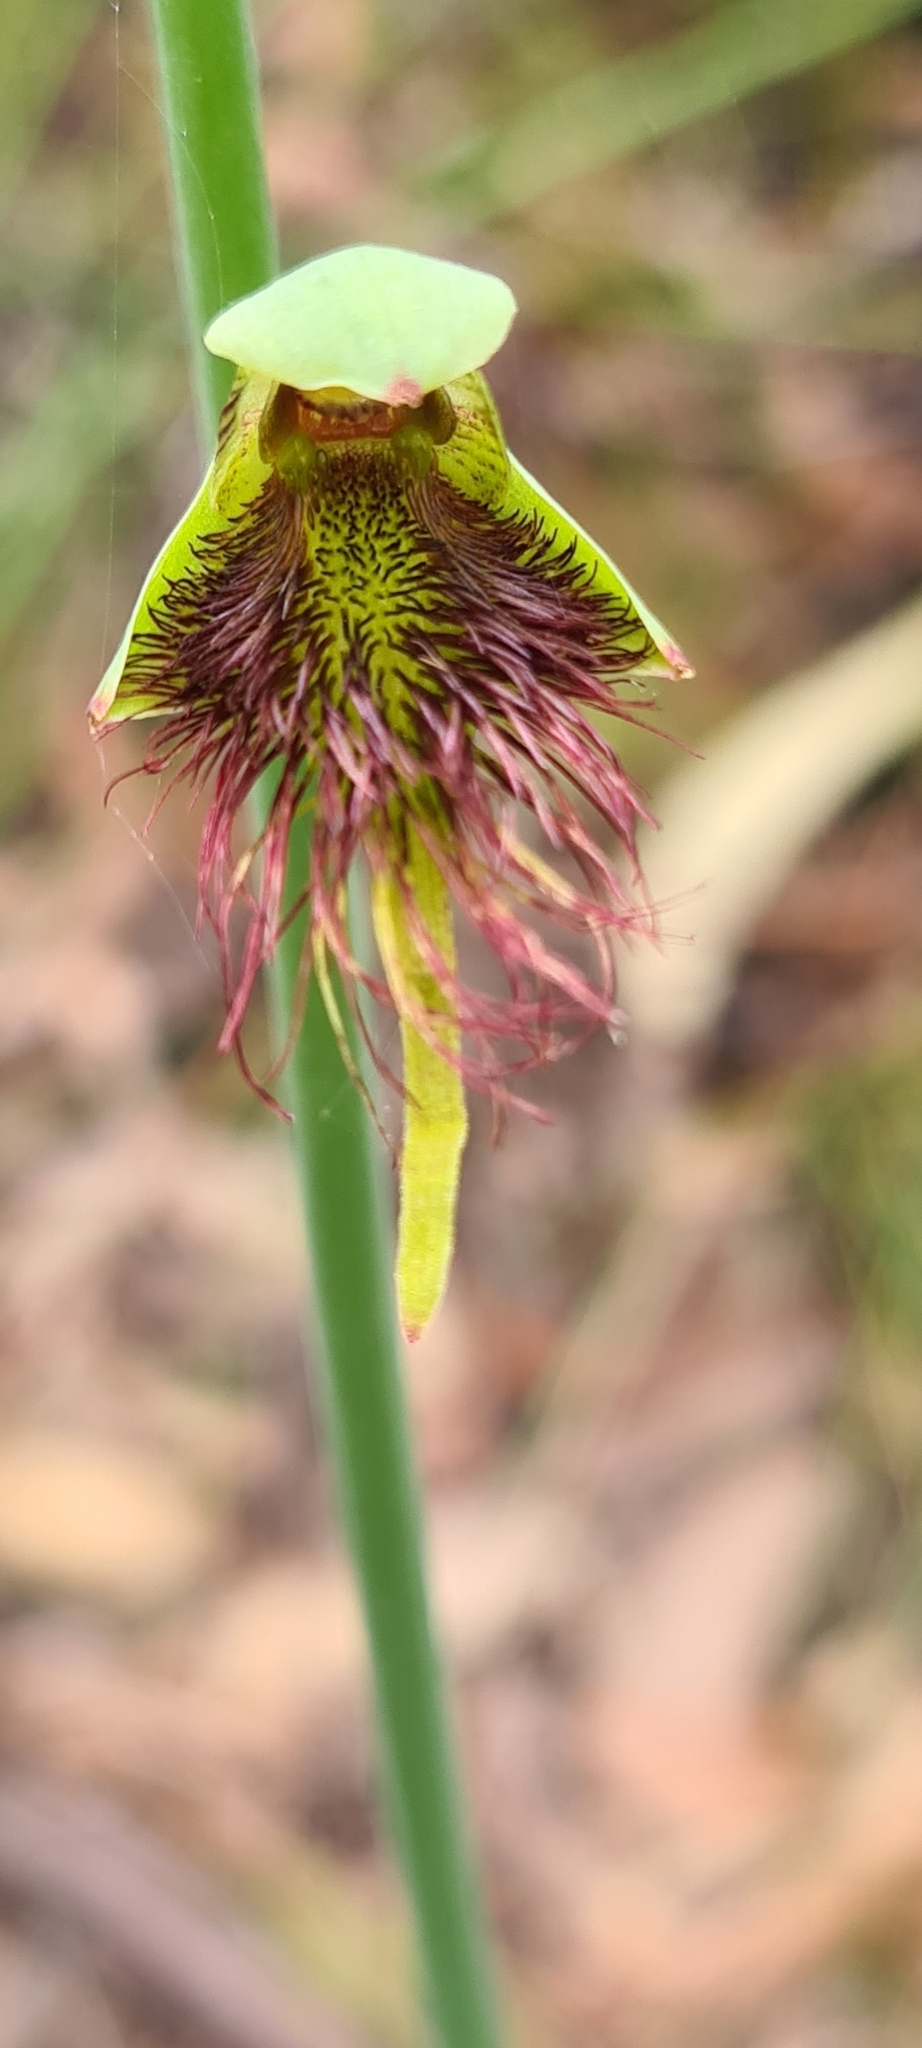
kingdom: Plantae
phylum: Tracheophyta
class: Liliopsida
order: Asparagales
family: Orchidaceae
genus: Calochilus
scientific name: Calochilus paludosus
